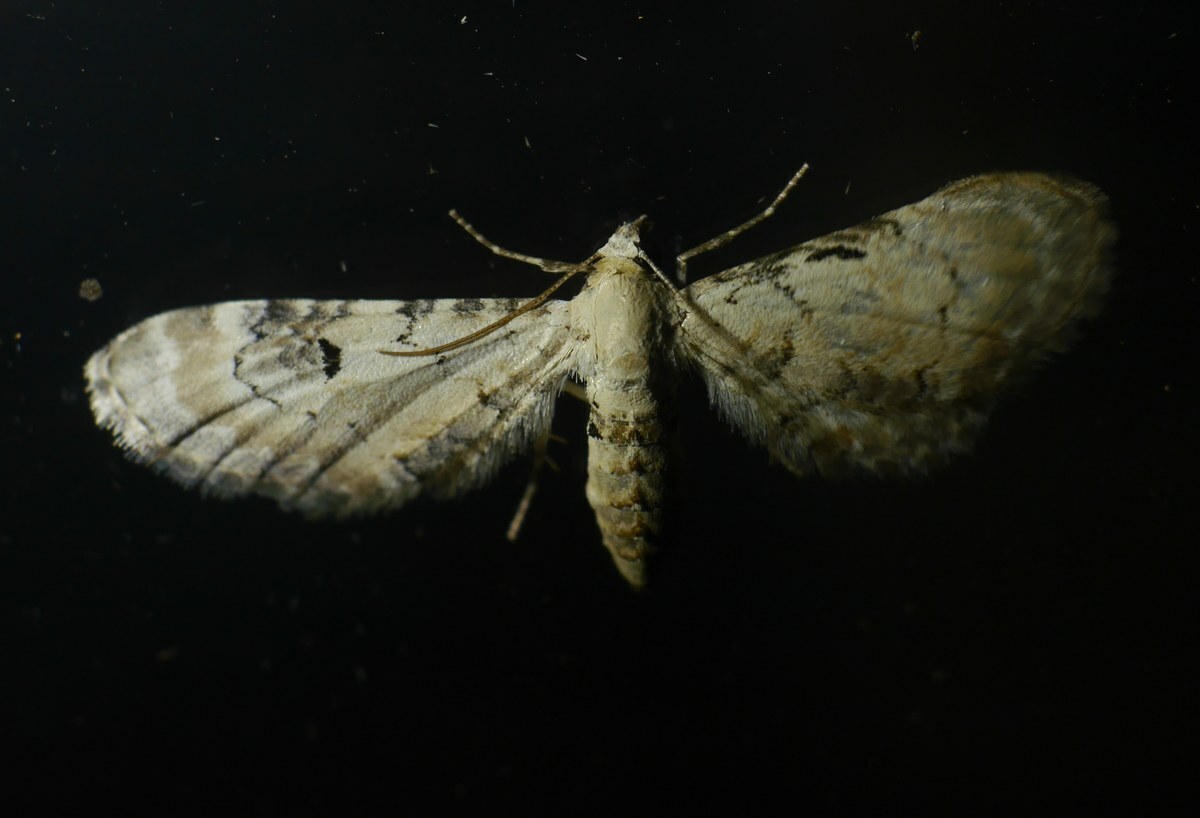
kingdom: Animalia
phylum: Arthropoda
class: Insecta
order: Lepidoptera
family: Geometridae
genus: Eupithecia
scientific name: Eupithecia centaureata
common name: Lime-speck pug
